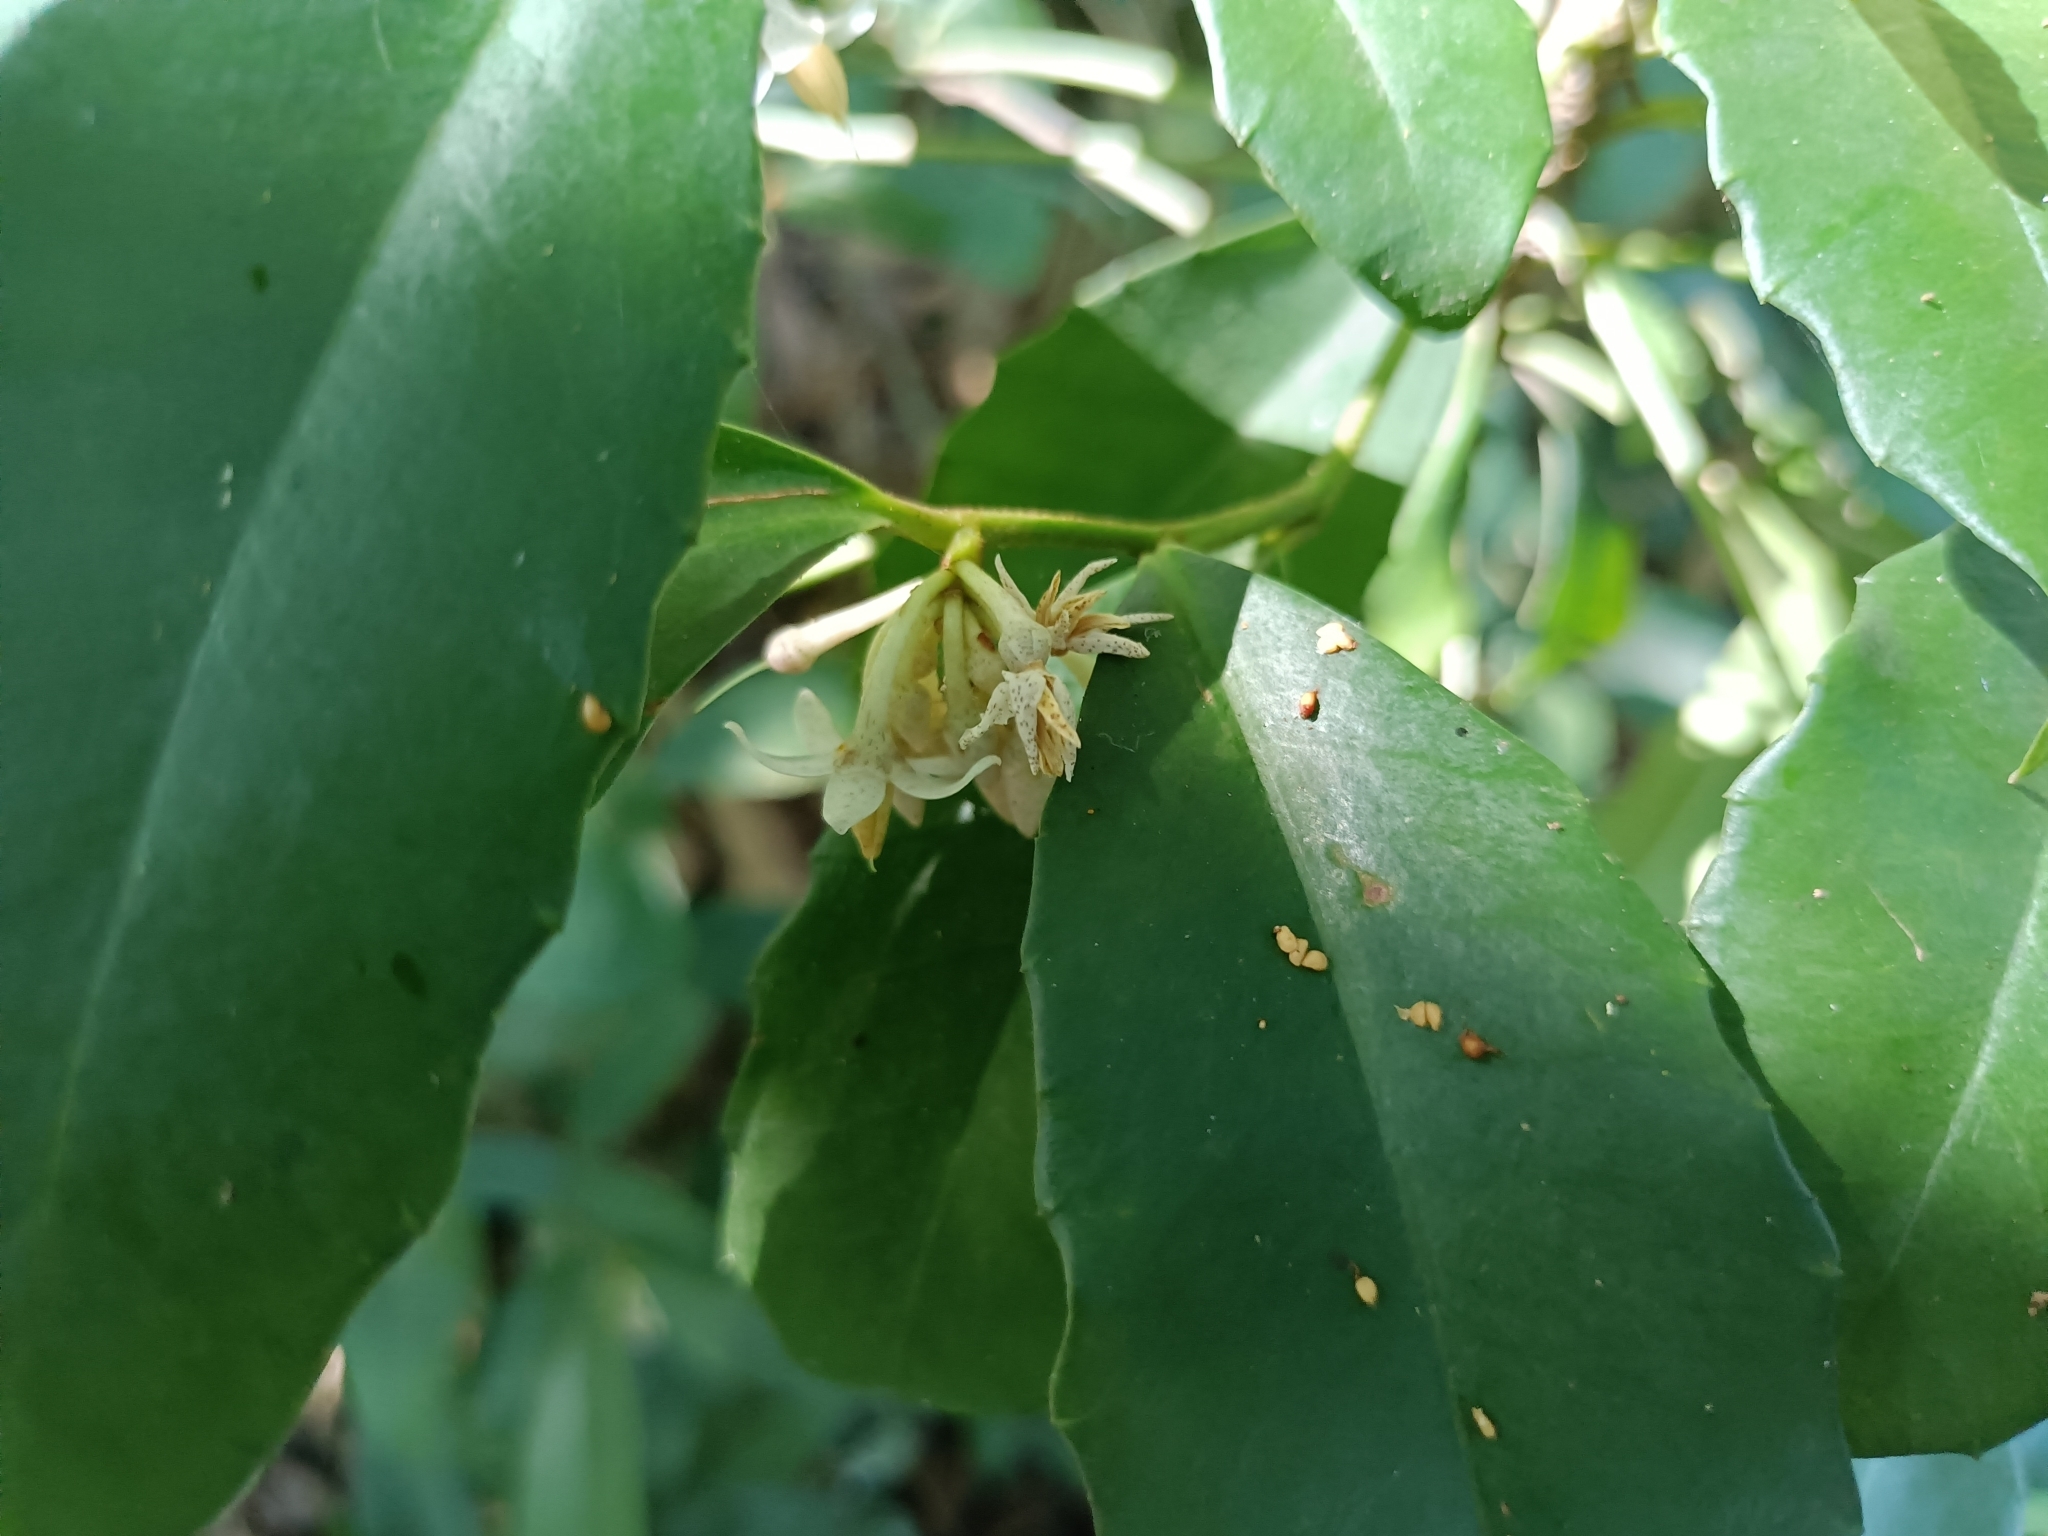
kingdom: Plantae
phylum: Tracheophyta
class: Magnoliopsida
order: Ericales
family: Primulaceae
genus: Ardisia
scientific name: Ardisia cornudentata
